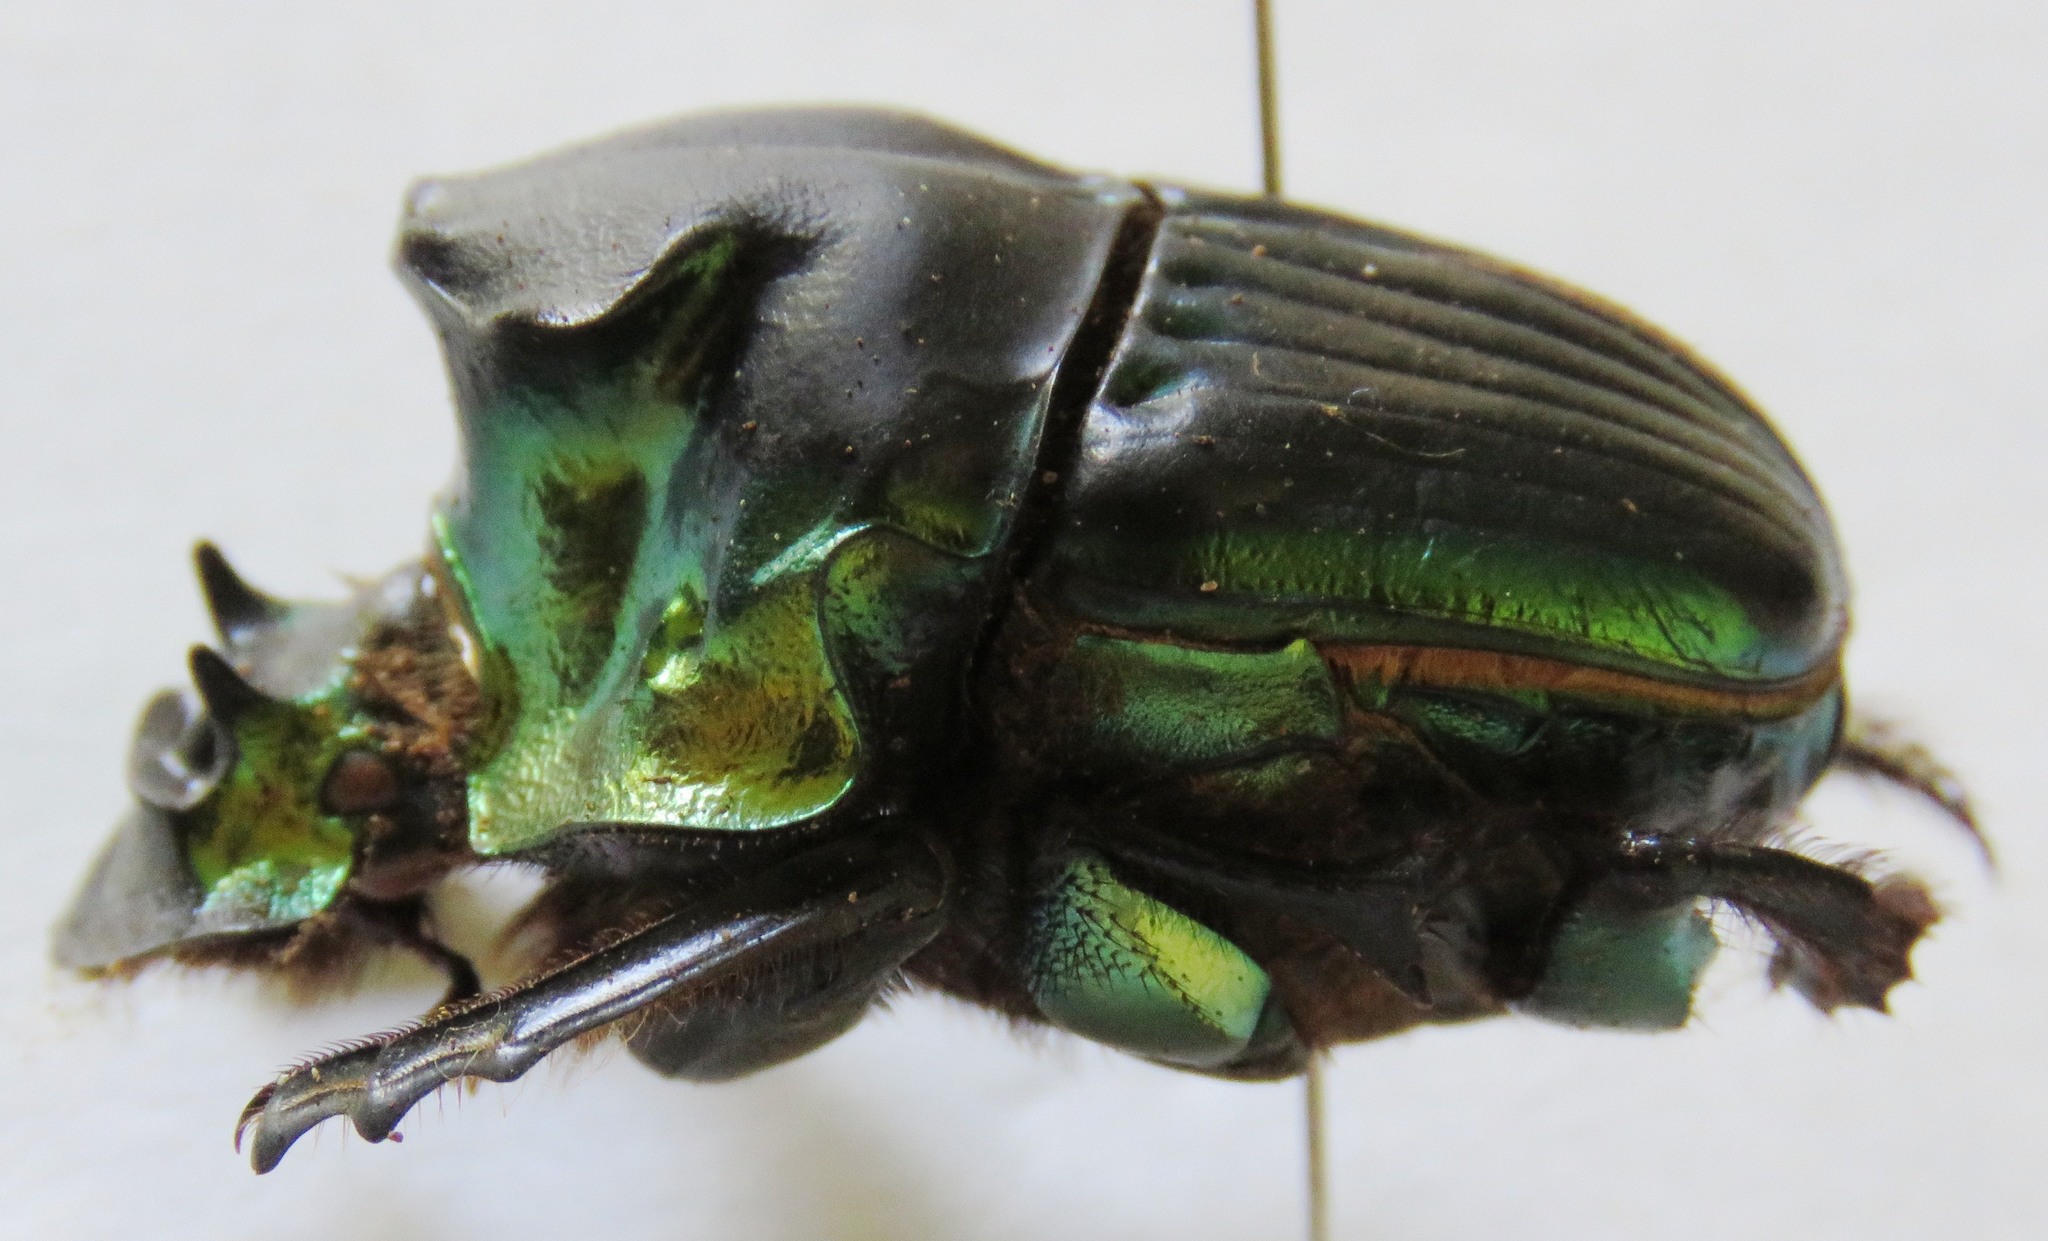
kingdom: Animalia
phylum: Arthropoda
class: Insecta
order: Coleoptera
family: Scarabaeidae
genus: Diabroctis
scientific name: Diabroctis mimas
